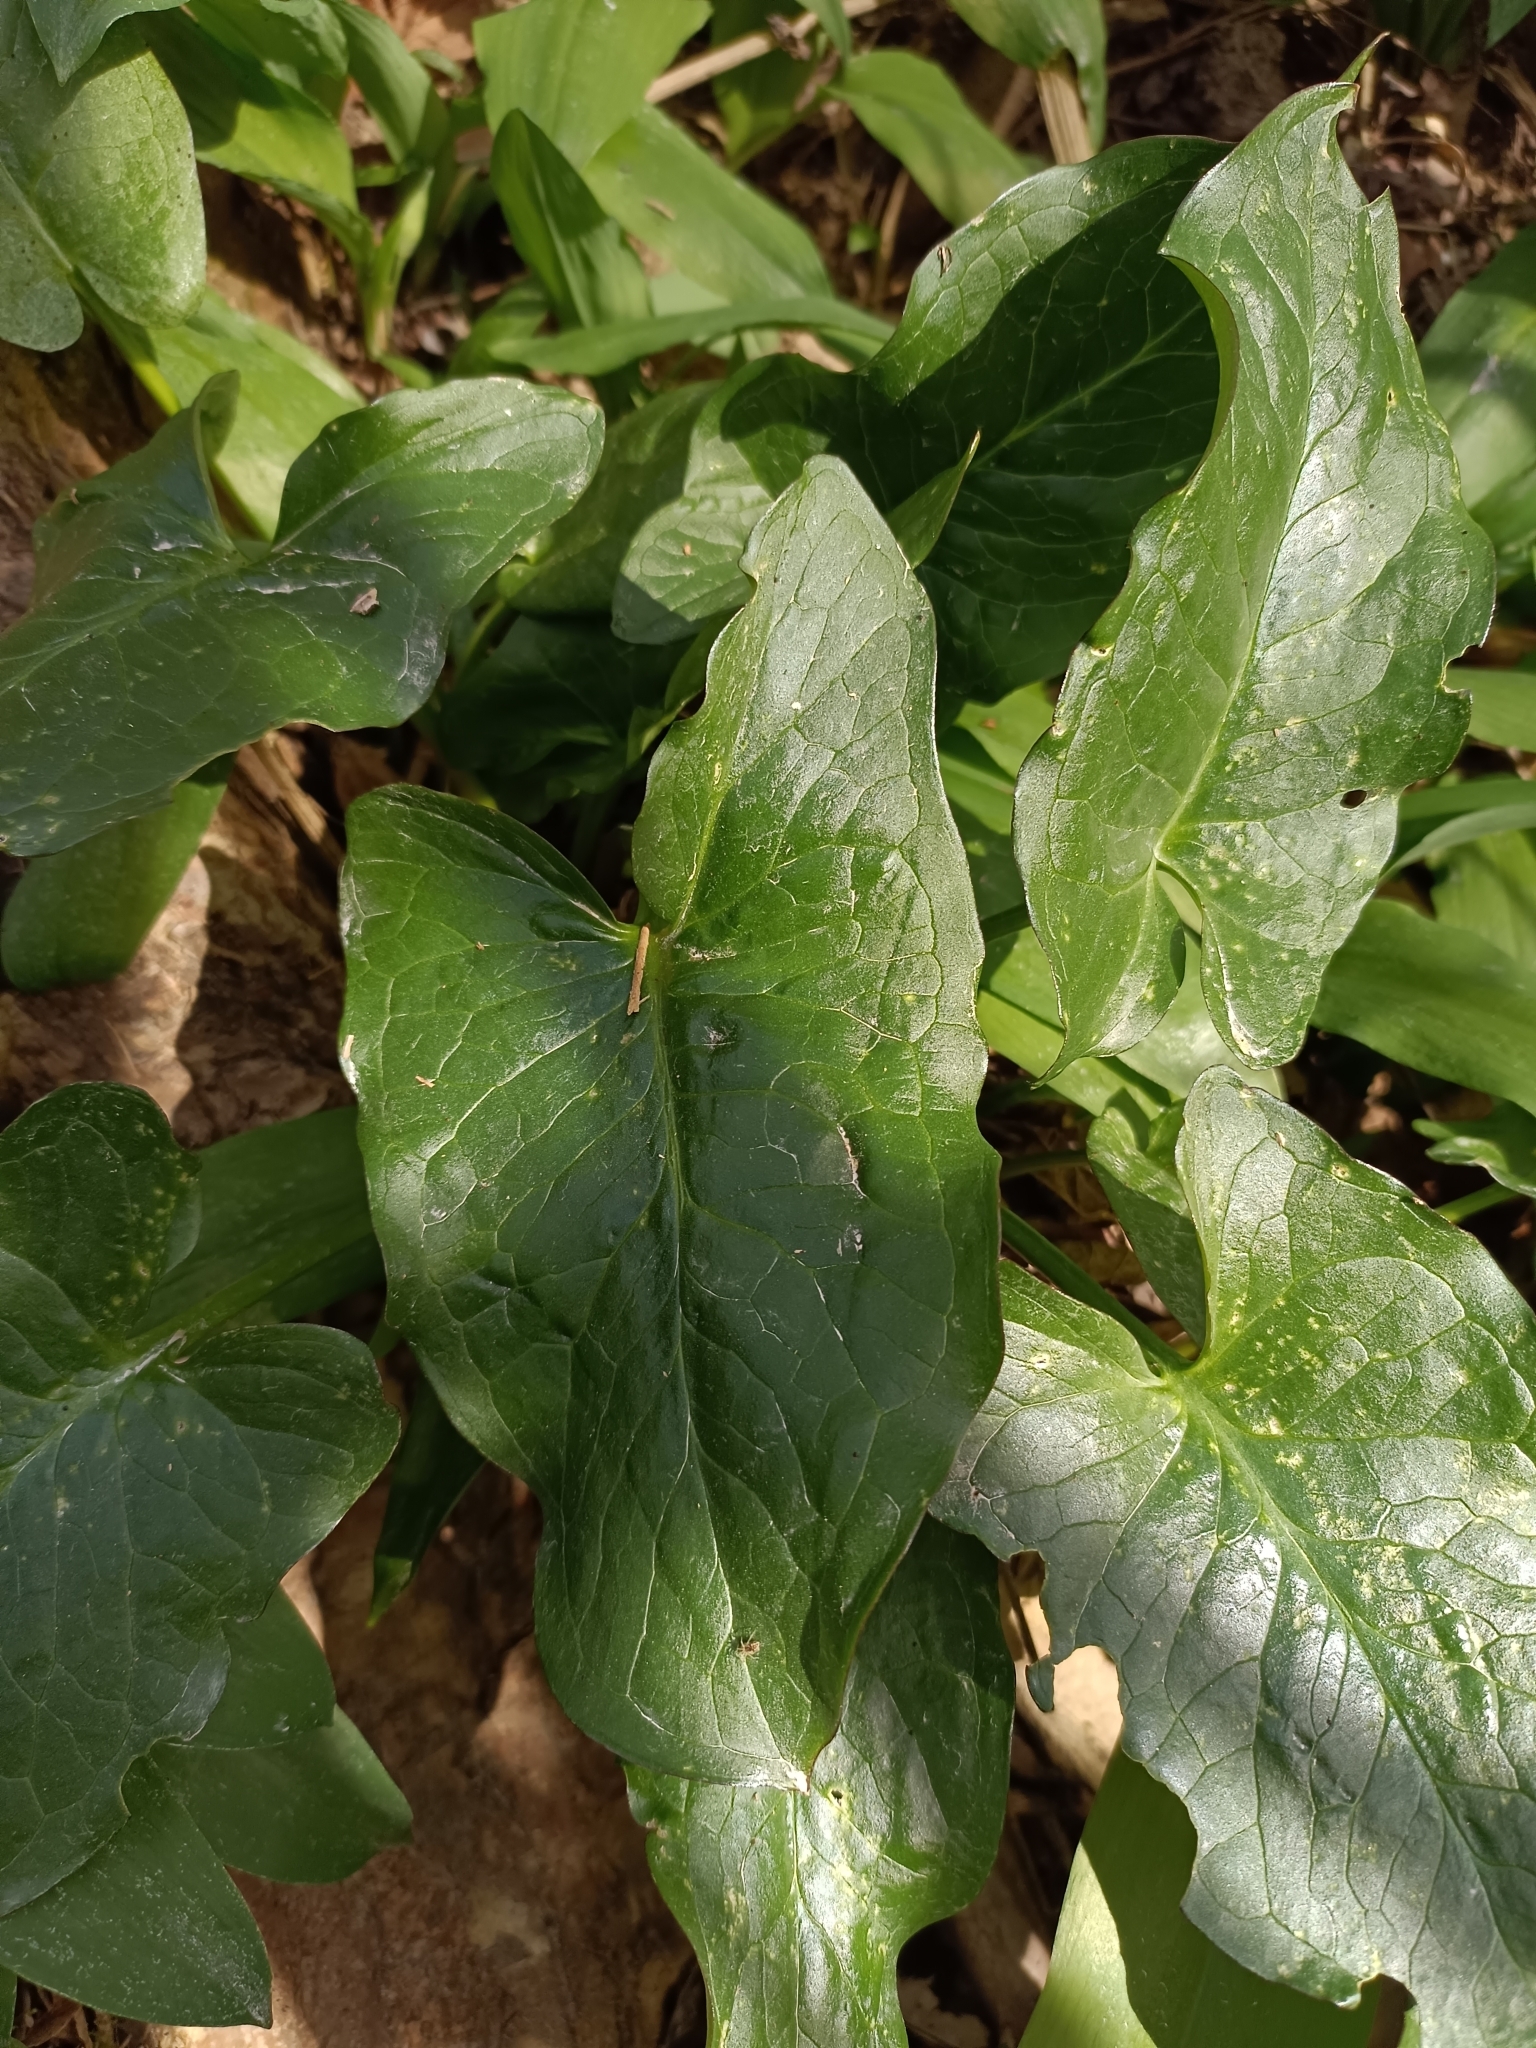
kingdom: Plantae
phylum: Tracheophyta
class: Liliopsida
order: Alismatales
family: Araceae
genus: Arum
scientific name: Arum cylindraceum
